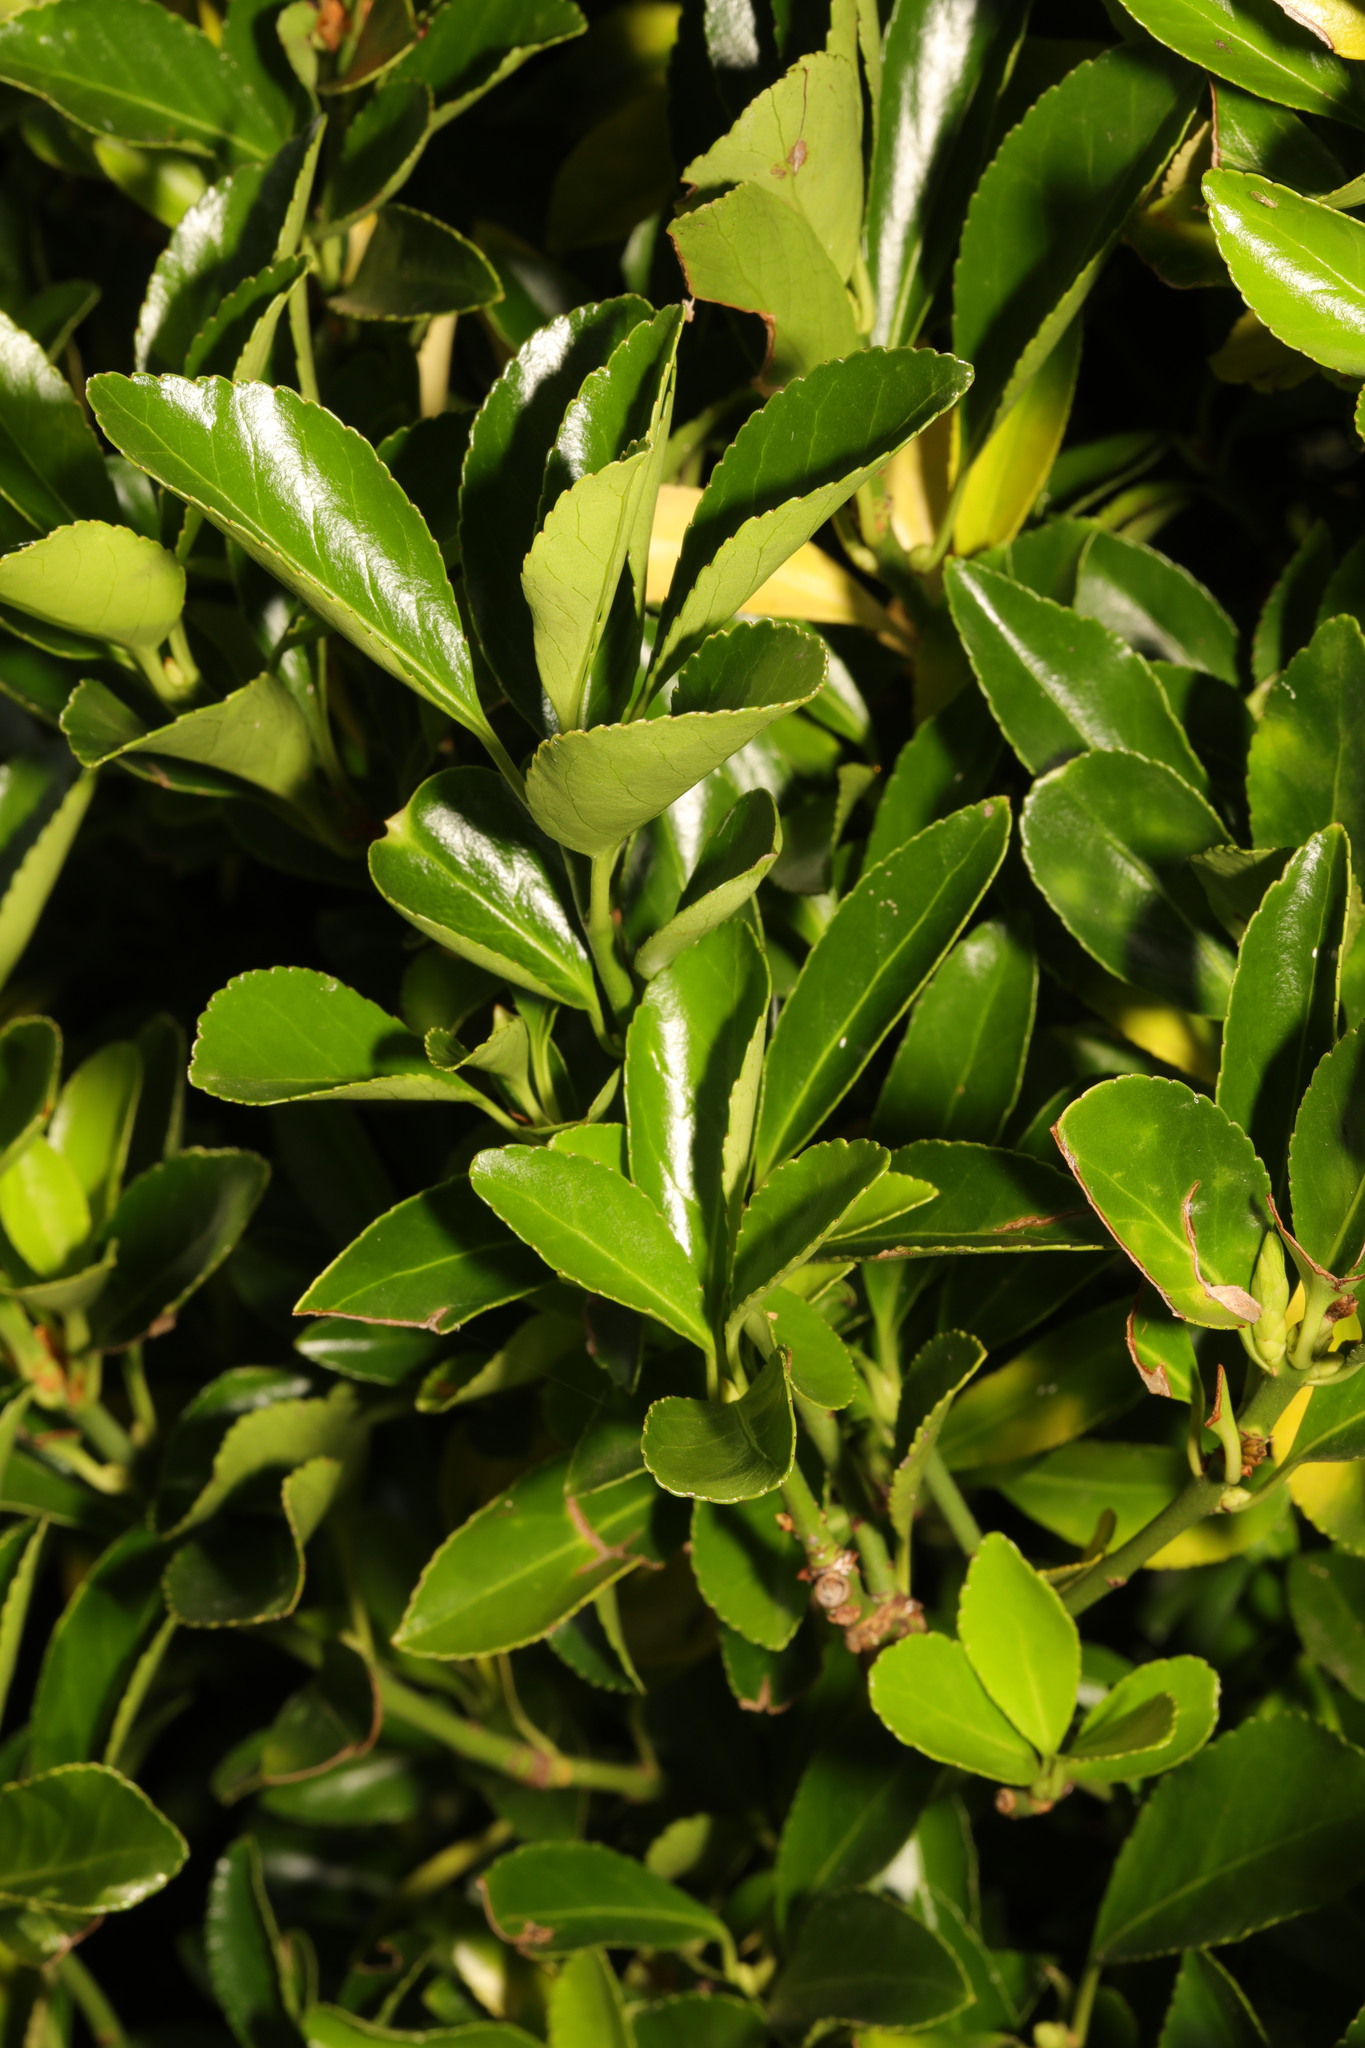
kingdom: Plantae
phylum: Tracheophyta
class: Magnoliopsida
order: Celastrales
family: Celastraceae
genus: Euonymus
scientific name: Euonymus japonicus
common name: Japanese spindletree
